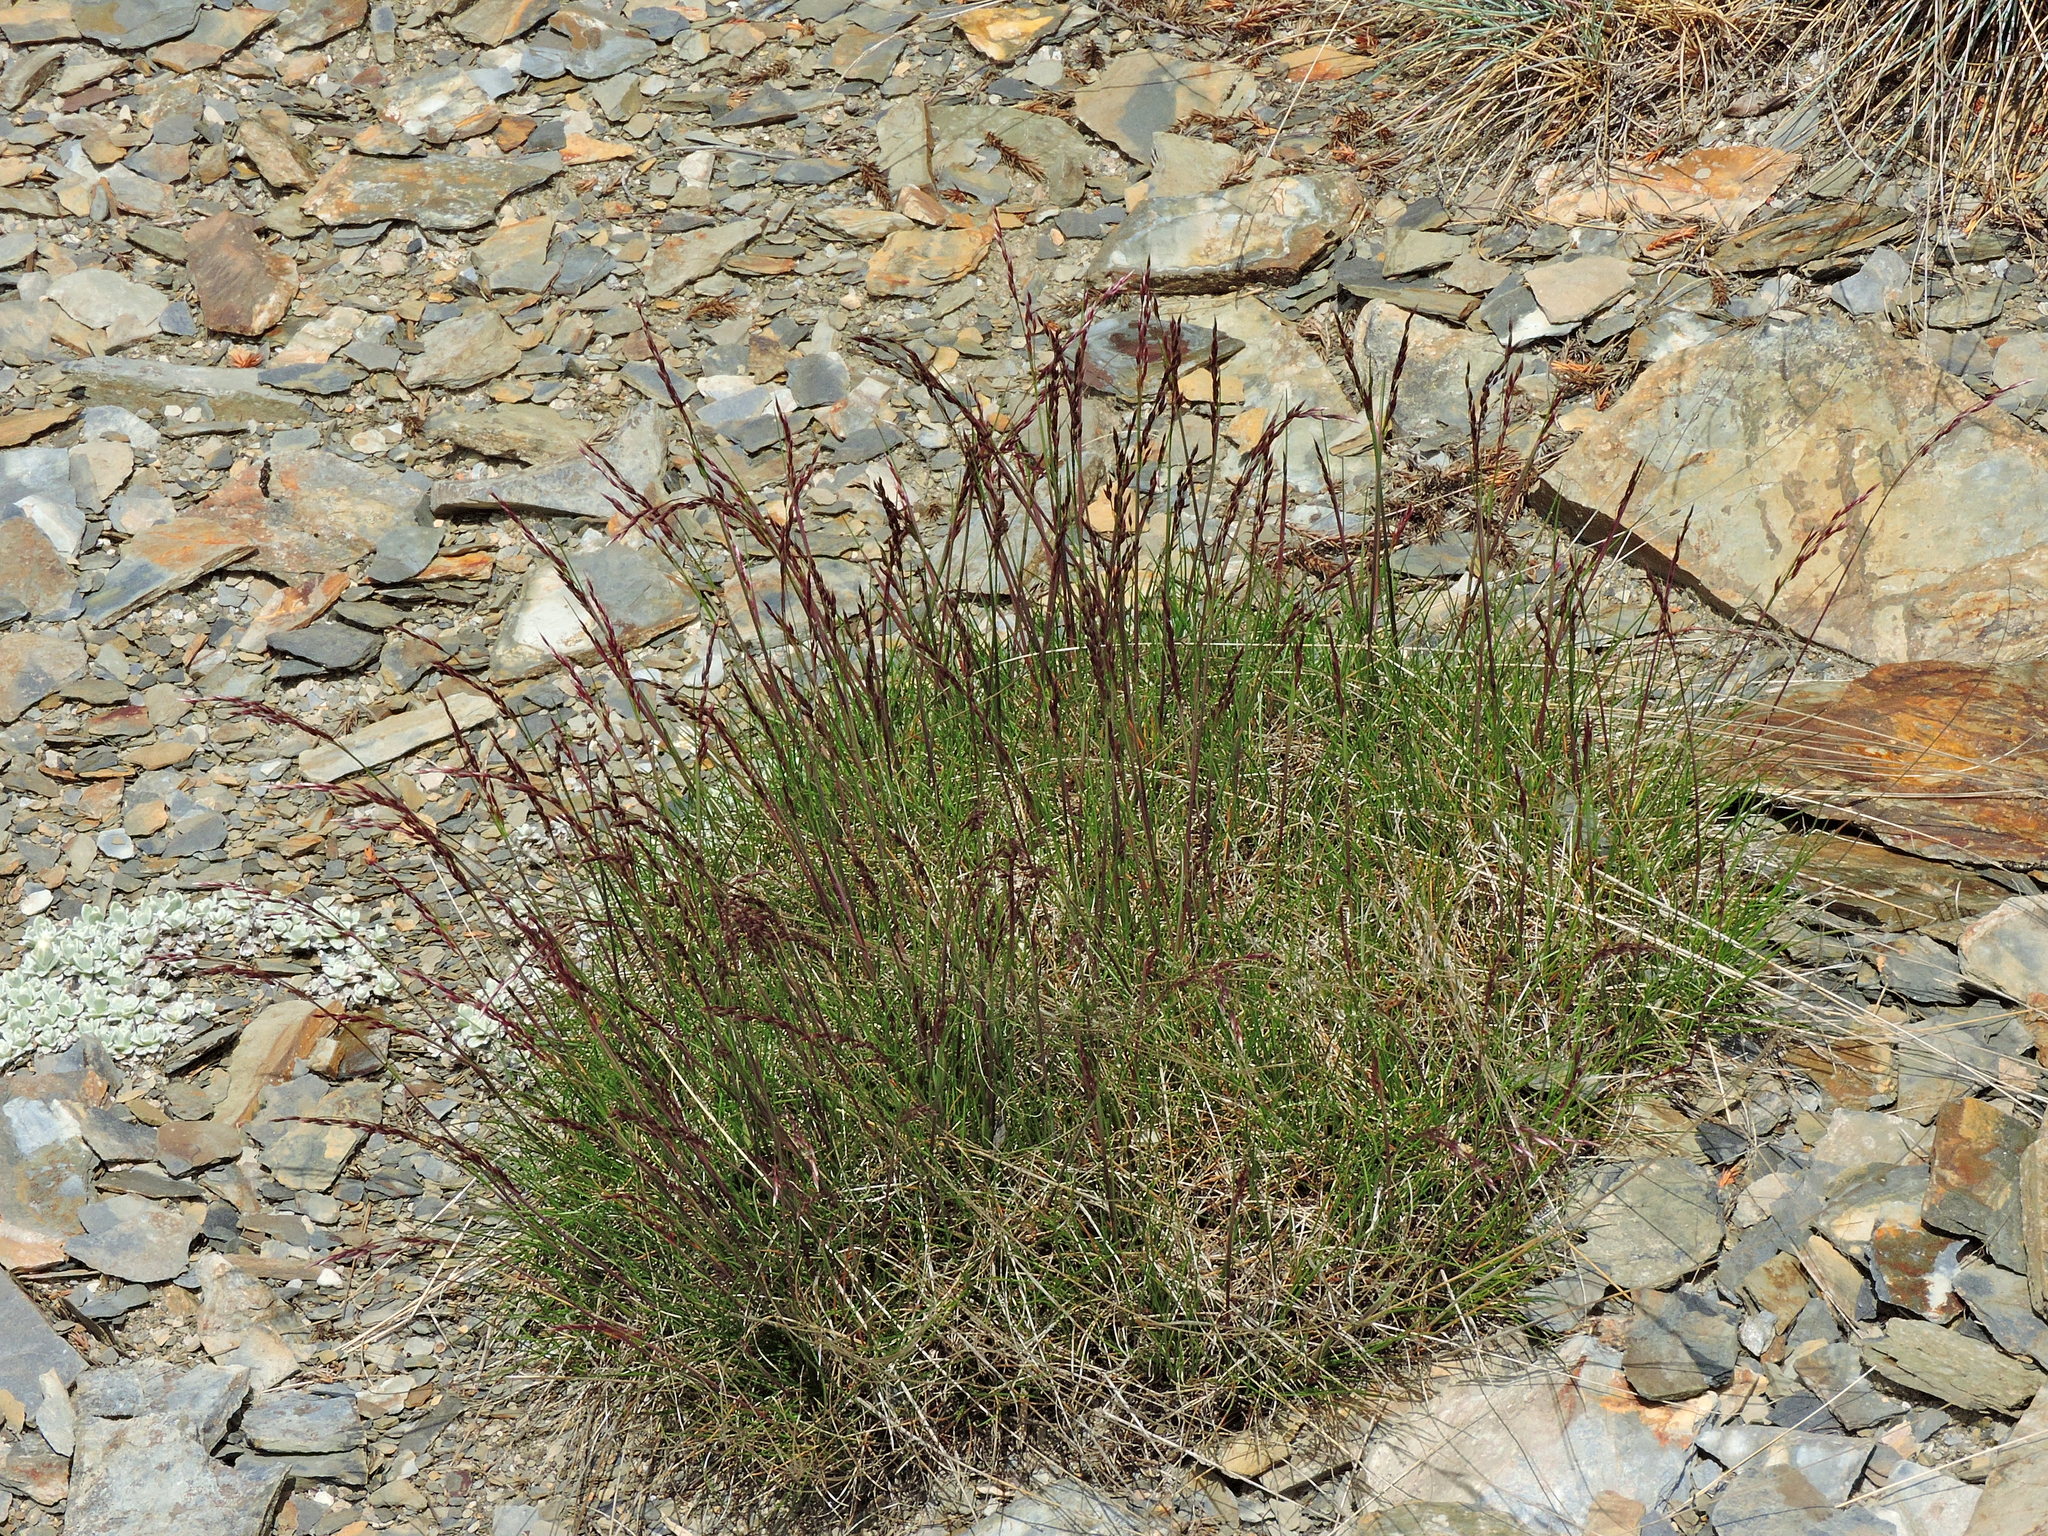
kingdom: Plantae
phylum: Tracheophyta
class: Liliopsida
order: Poales
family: Poaceae
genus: Avenella
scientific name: Avenella flexuosa
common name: Wavy hairgrass
